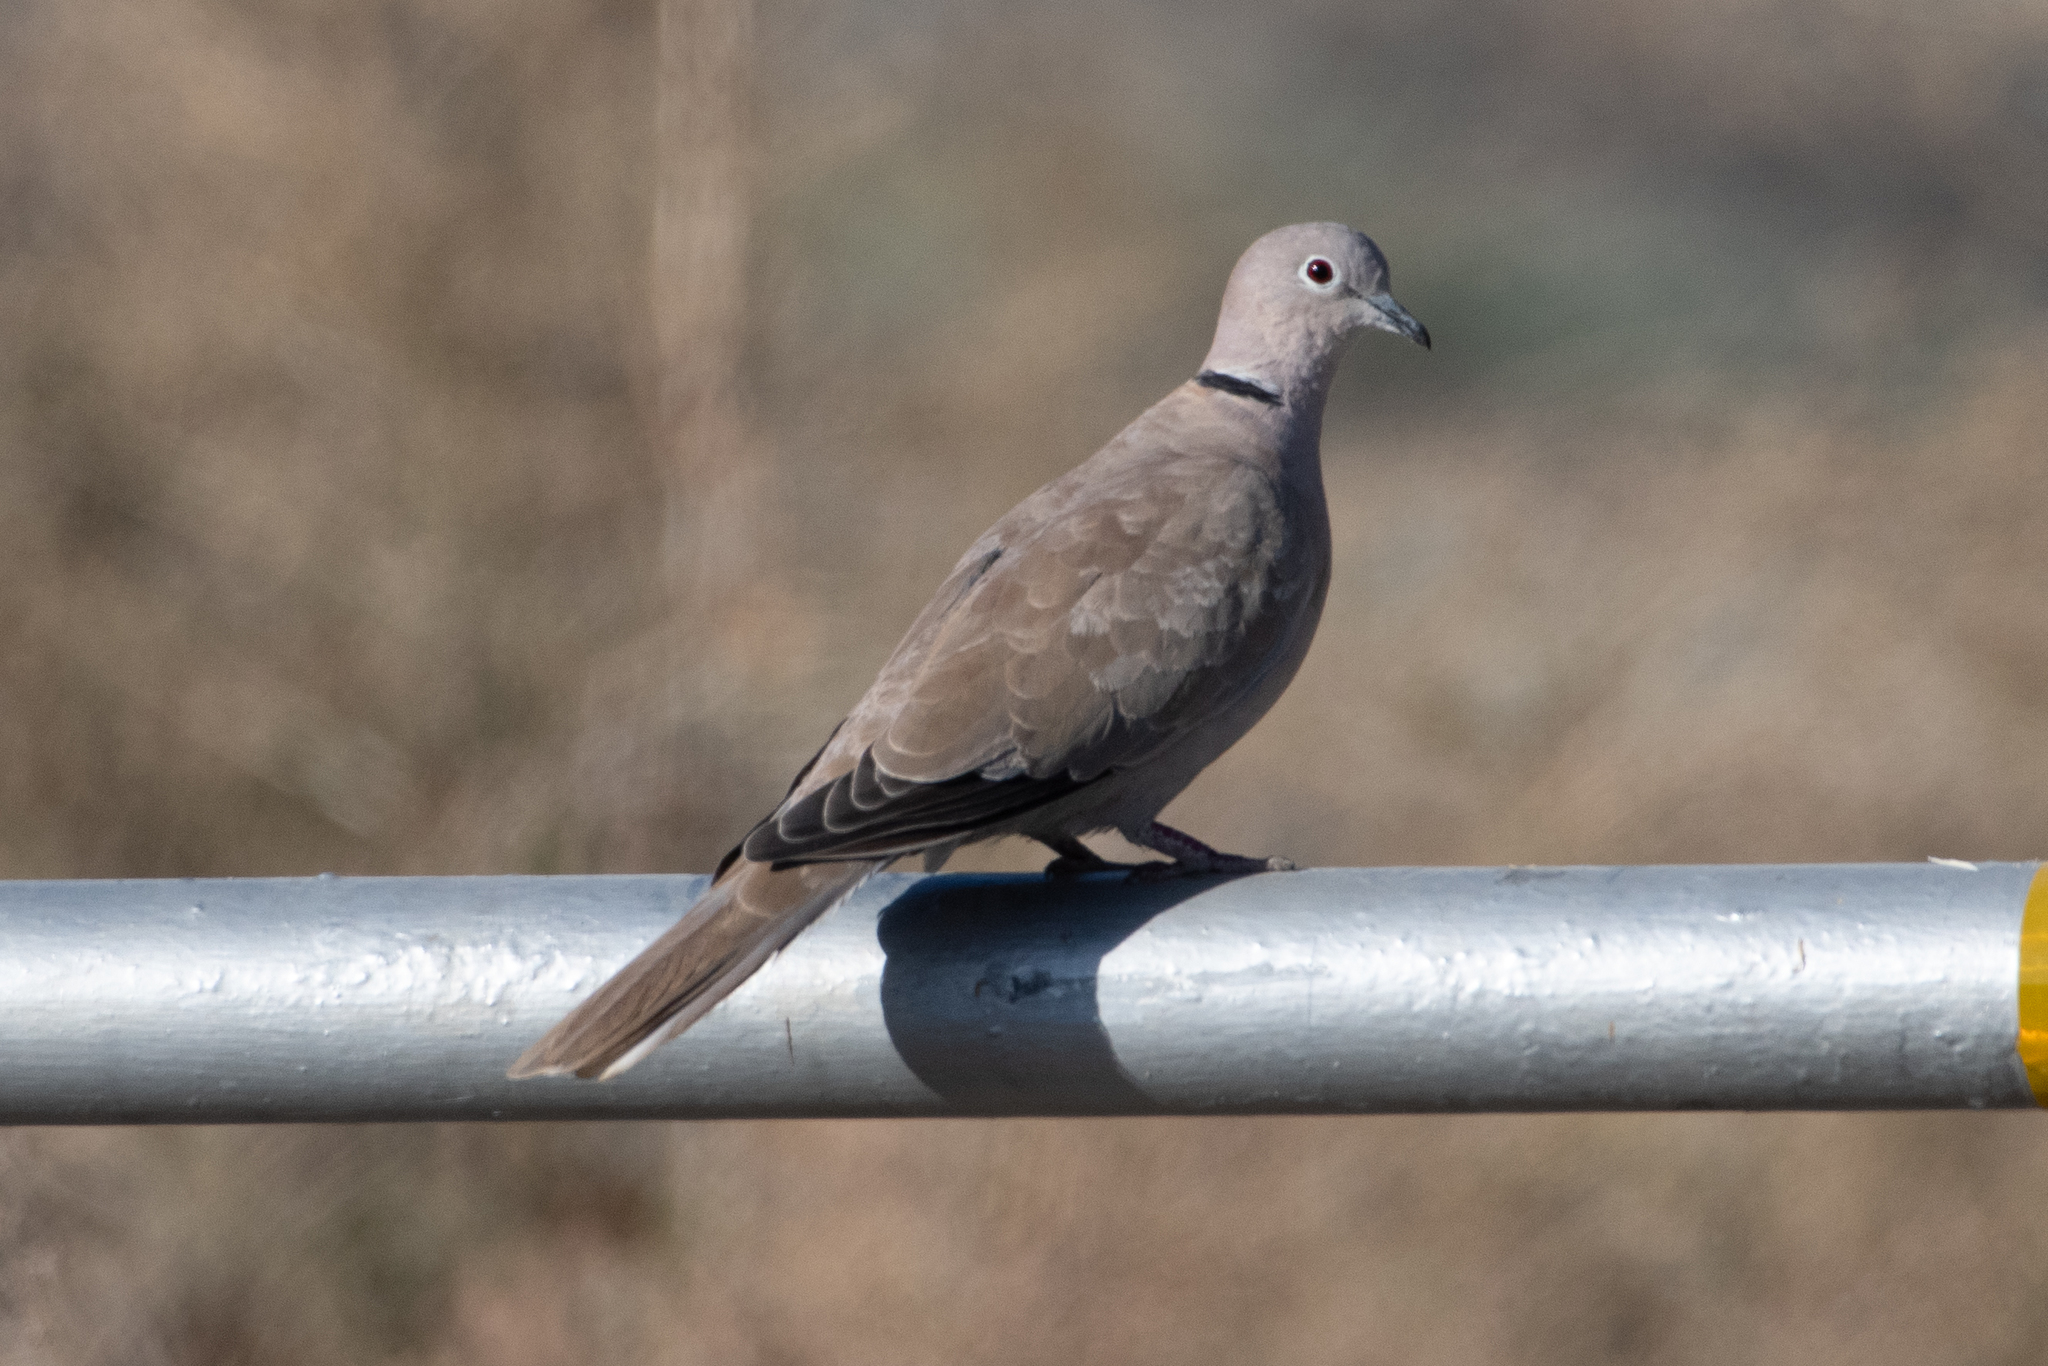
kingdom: Animalia
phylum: Chordata
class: Aves
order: Columbiformes
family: Columbidae
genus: Streptopelia
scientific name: Streptopelia decaocto
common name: Eurasian collared dove
